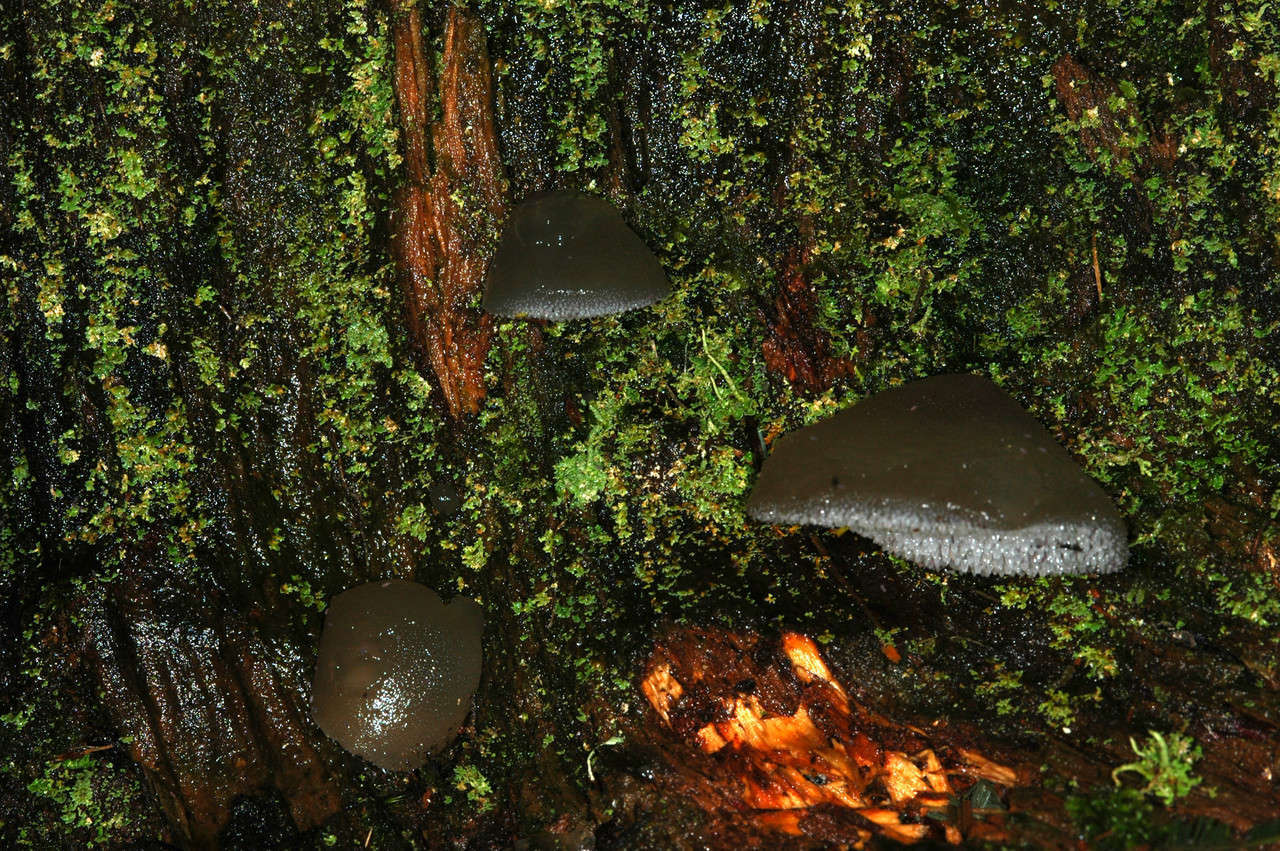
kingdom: Fungi
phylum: Basidiomycota
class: Agaricomycetes
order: Auriculariales
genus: Pseudohydnum
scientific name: Pseudohydnum gelatinosum
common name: Jelly tongue
